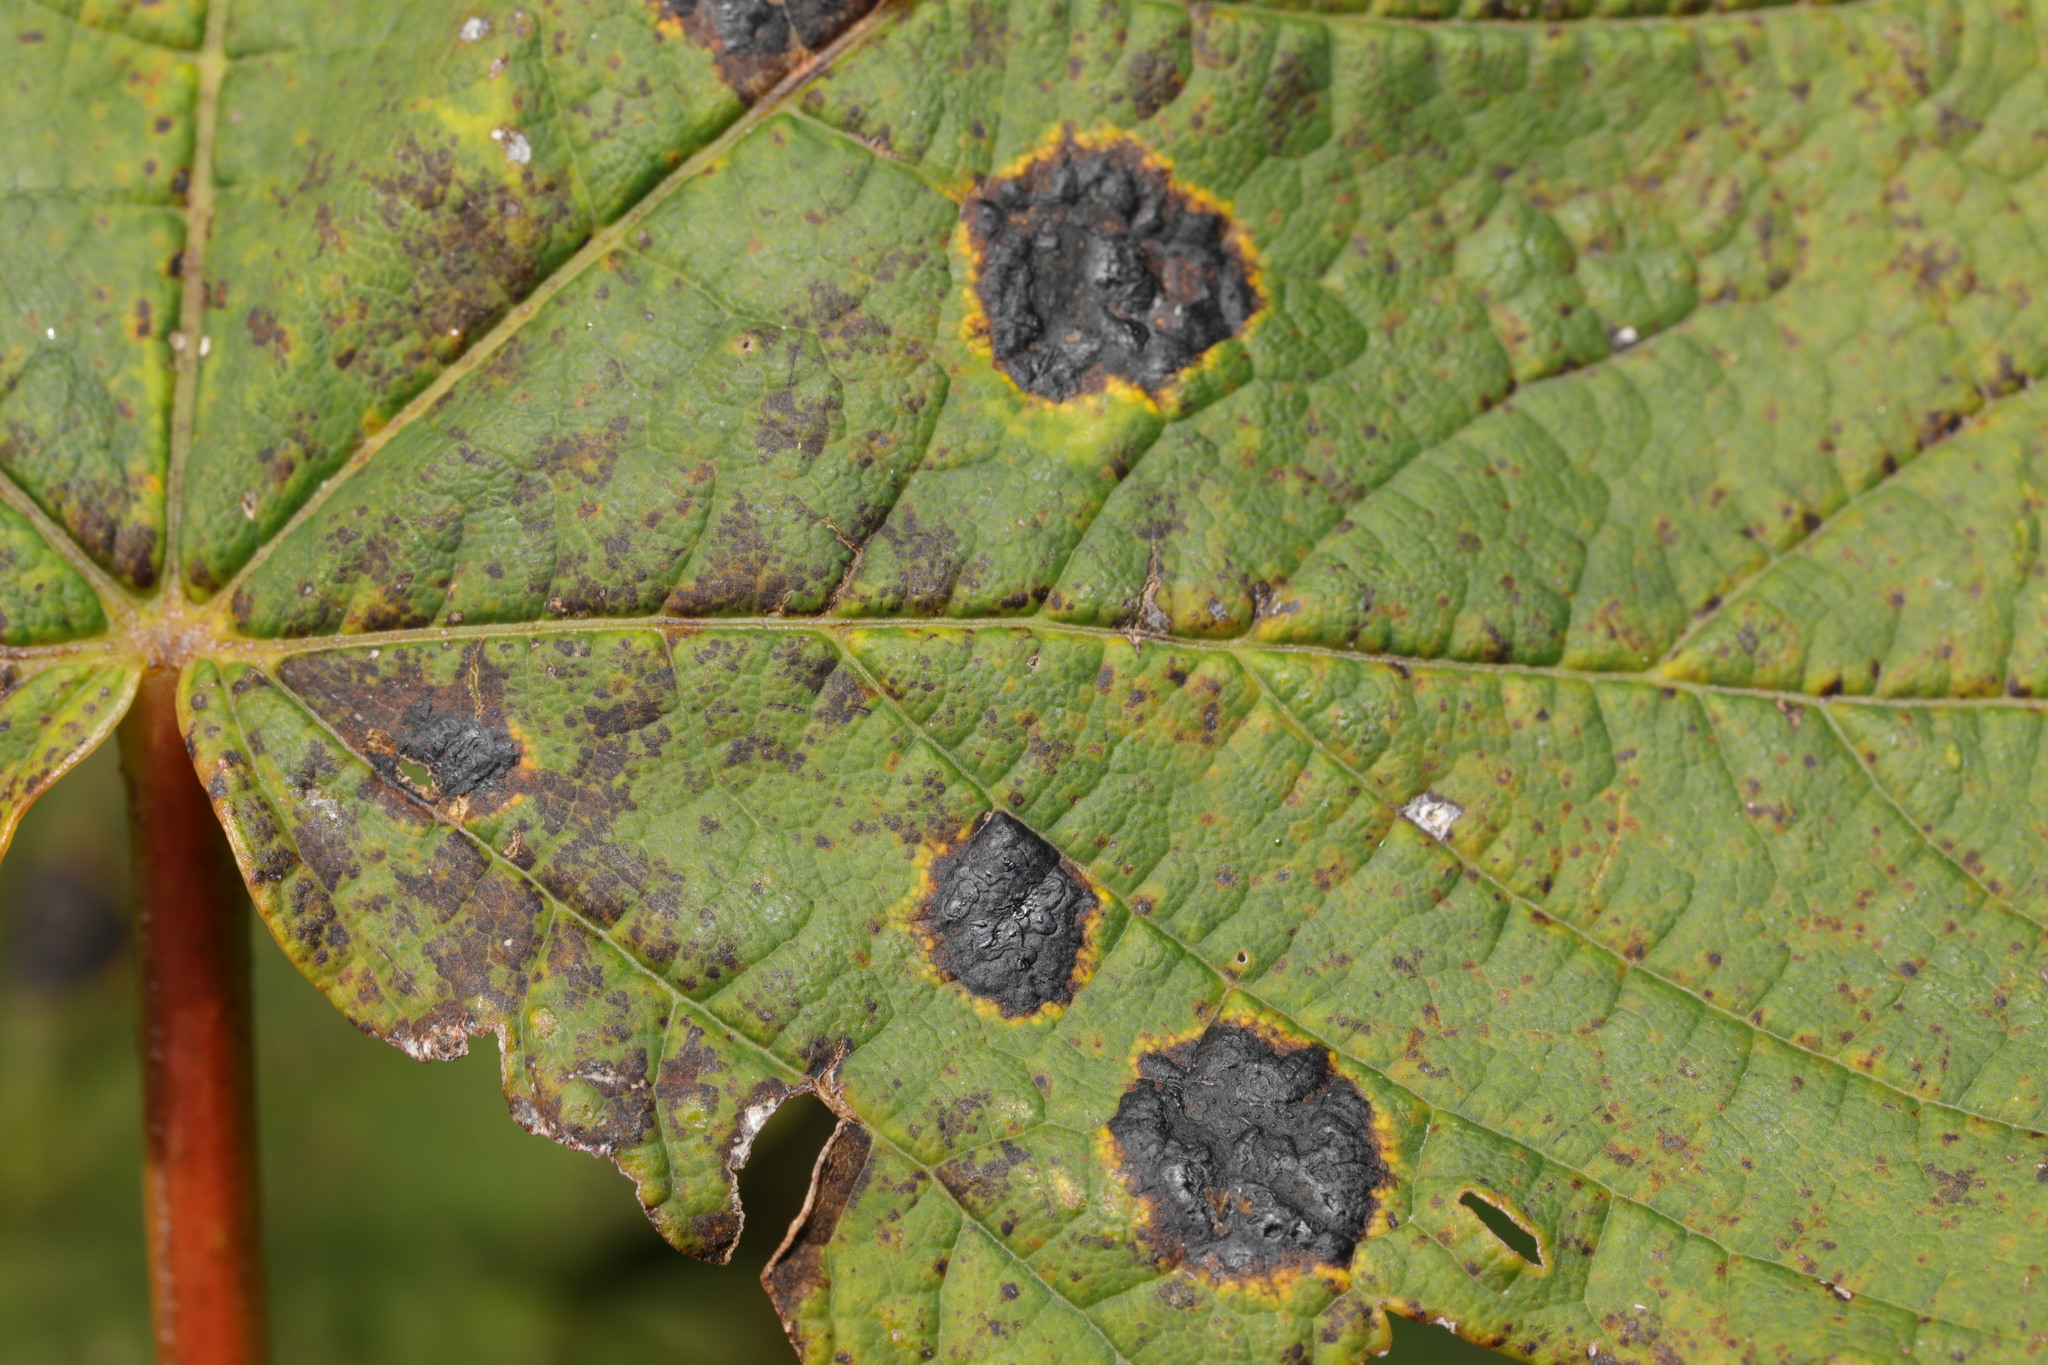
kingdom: Fungi
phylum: Ascomycota
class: Leotiomycetes
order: Rhytismatales
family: Rhytismataceae
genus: Rhytisma
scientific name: Rhytisma acerinum
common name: European tar spot
